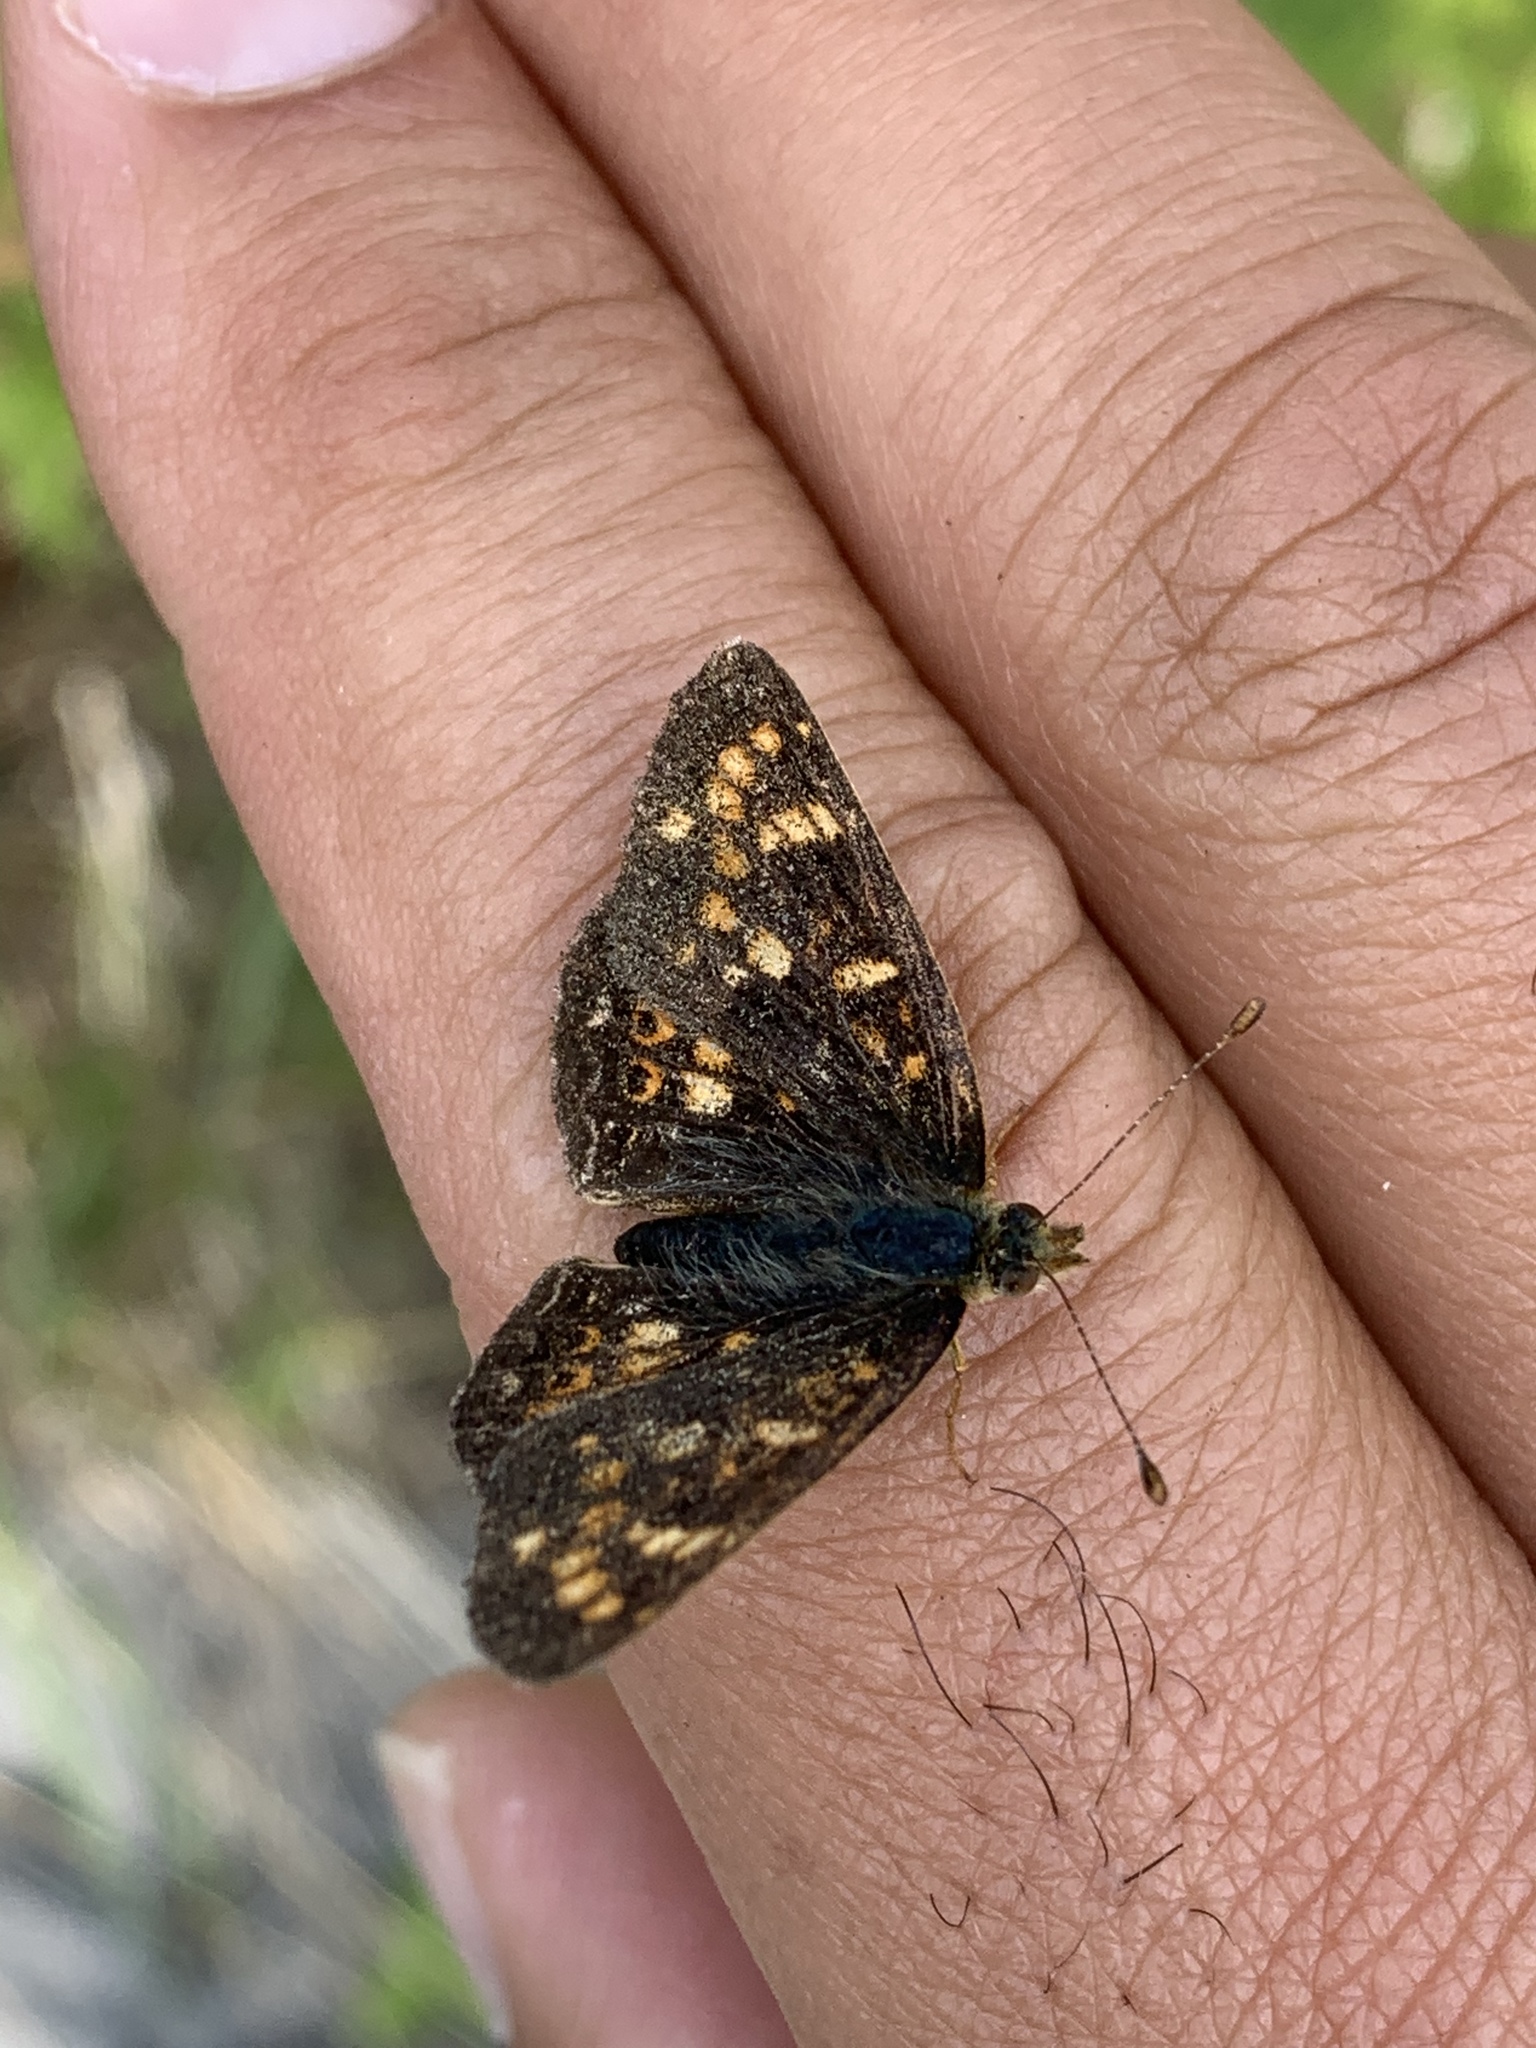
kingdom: Animalia
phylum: Arthropoda
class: Insecta
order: Lepidoptera
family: Nymphalidae
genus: Phyciodes
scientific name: Phyciodes tharos
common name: Pearl crescent
